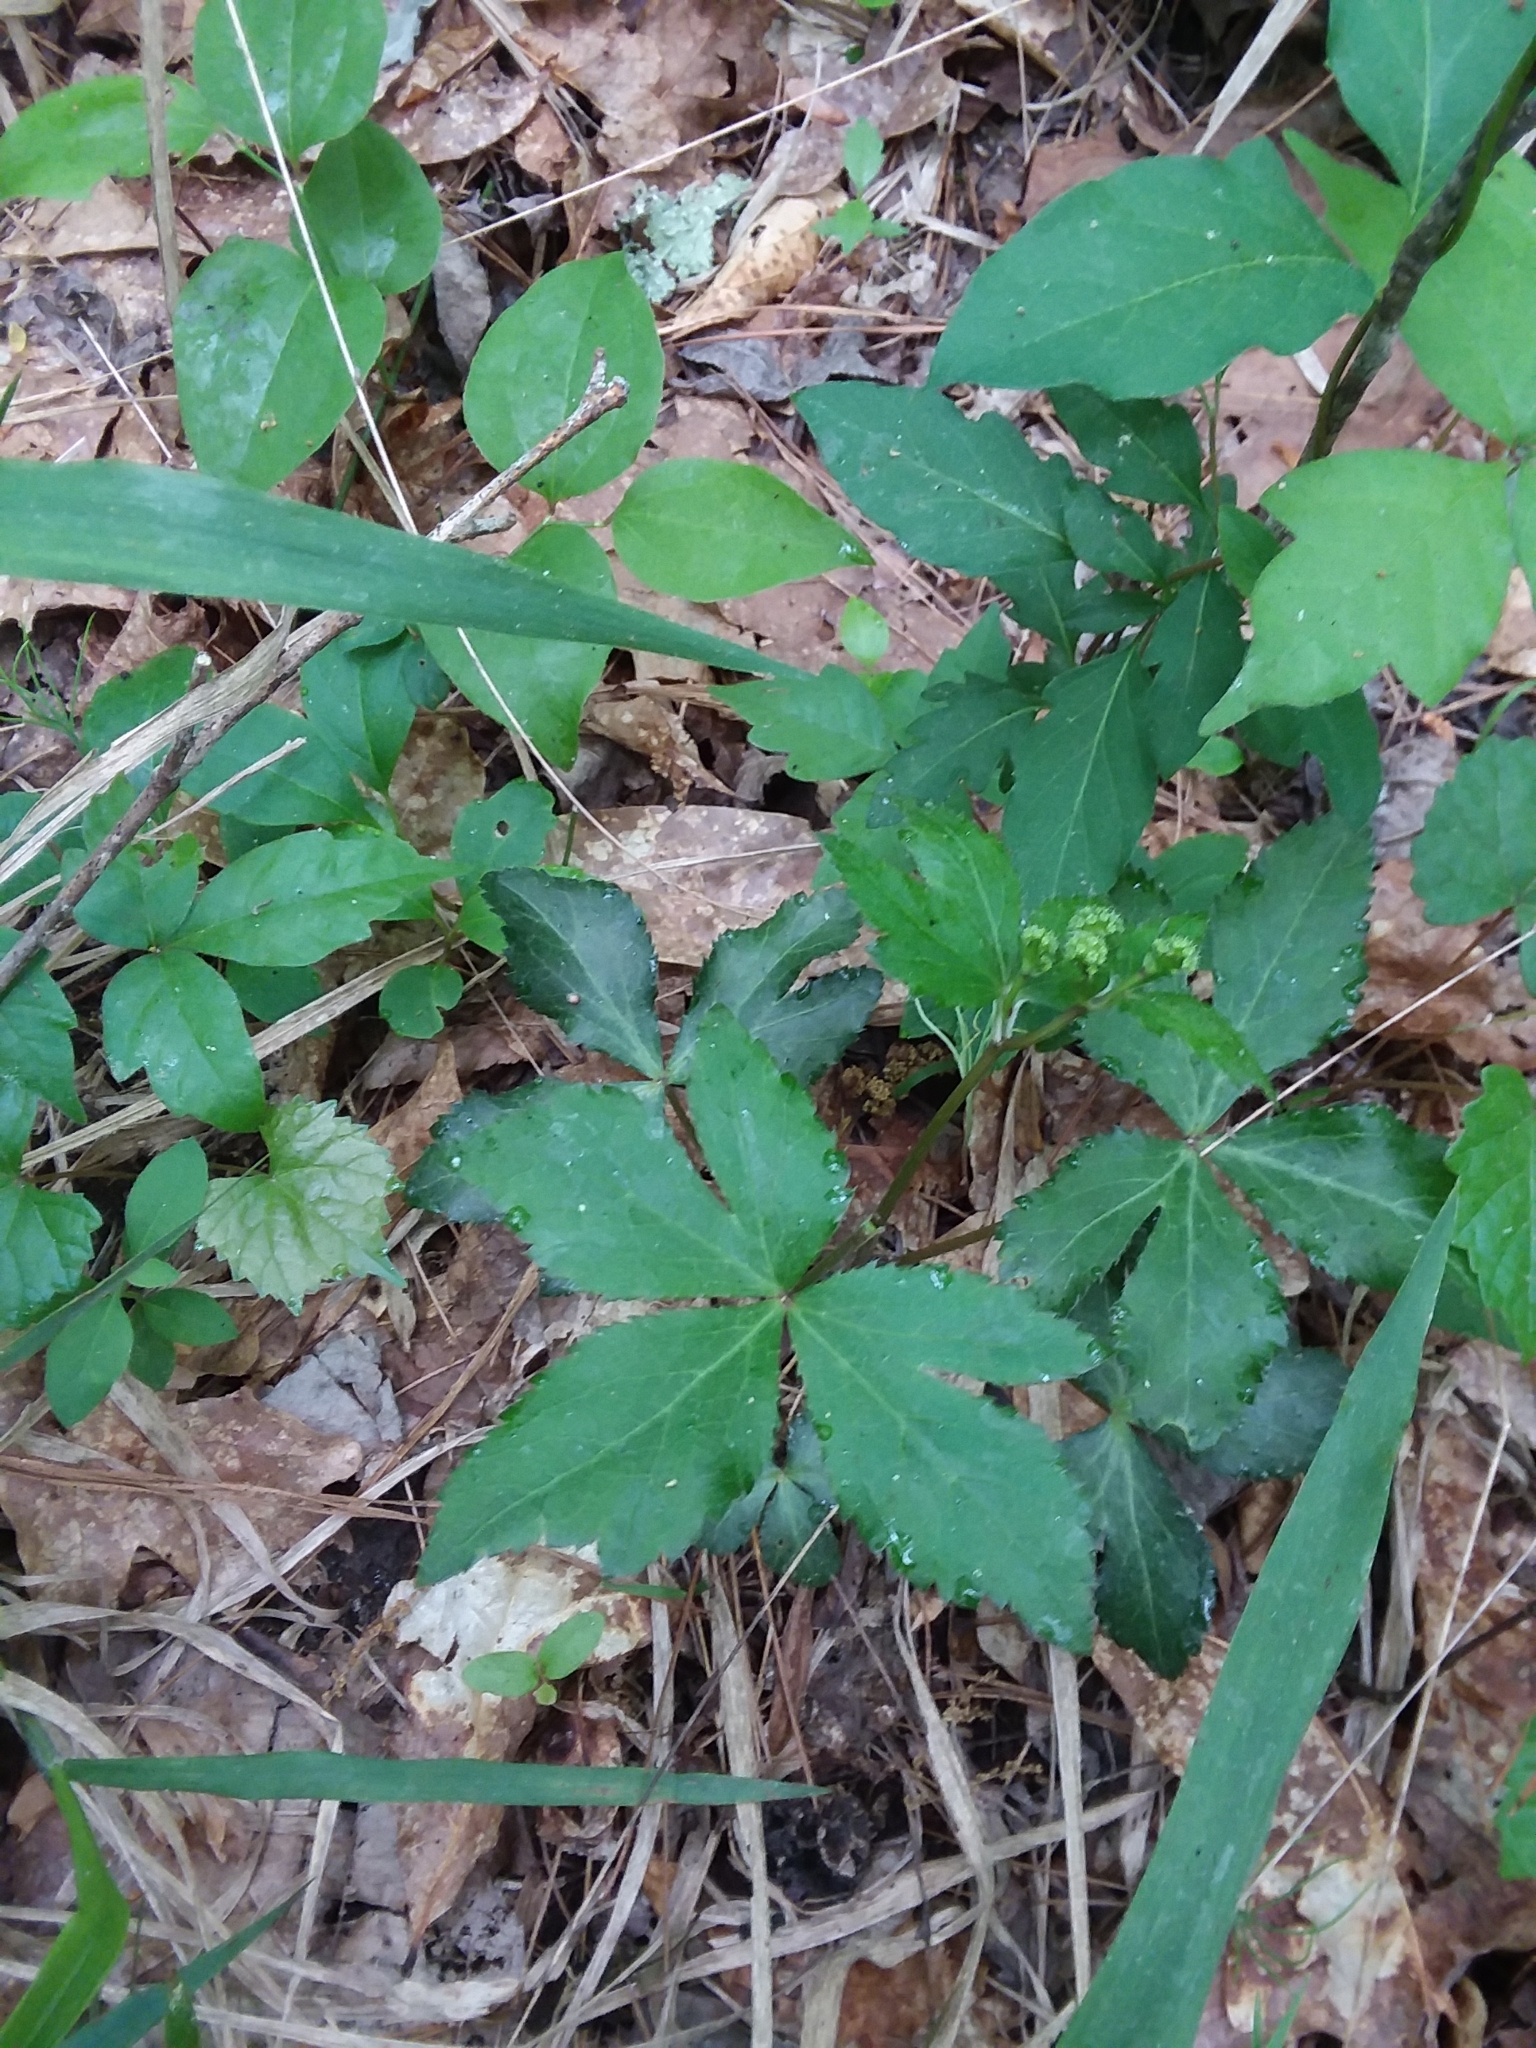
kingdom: Plantae
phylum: Tracheophyta
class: Magnoliopsida
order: Apiales
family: Apiaceae
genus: Sanicula
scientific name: Sanicula smallii
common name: Small's black snakeroot
